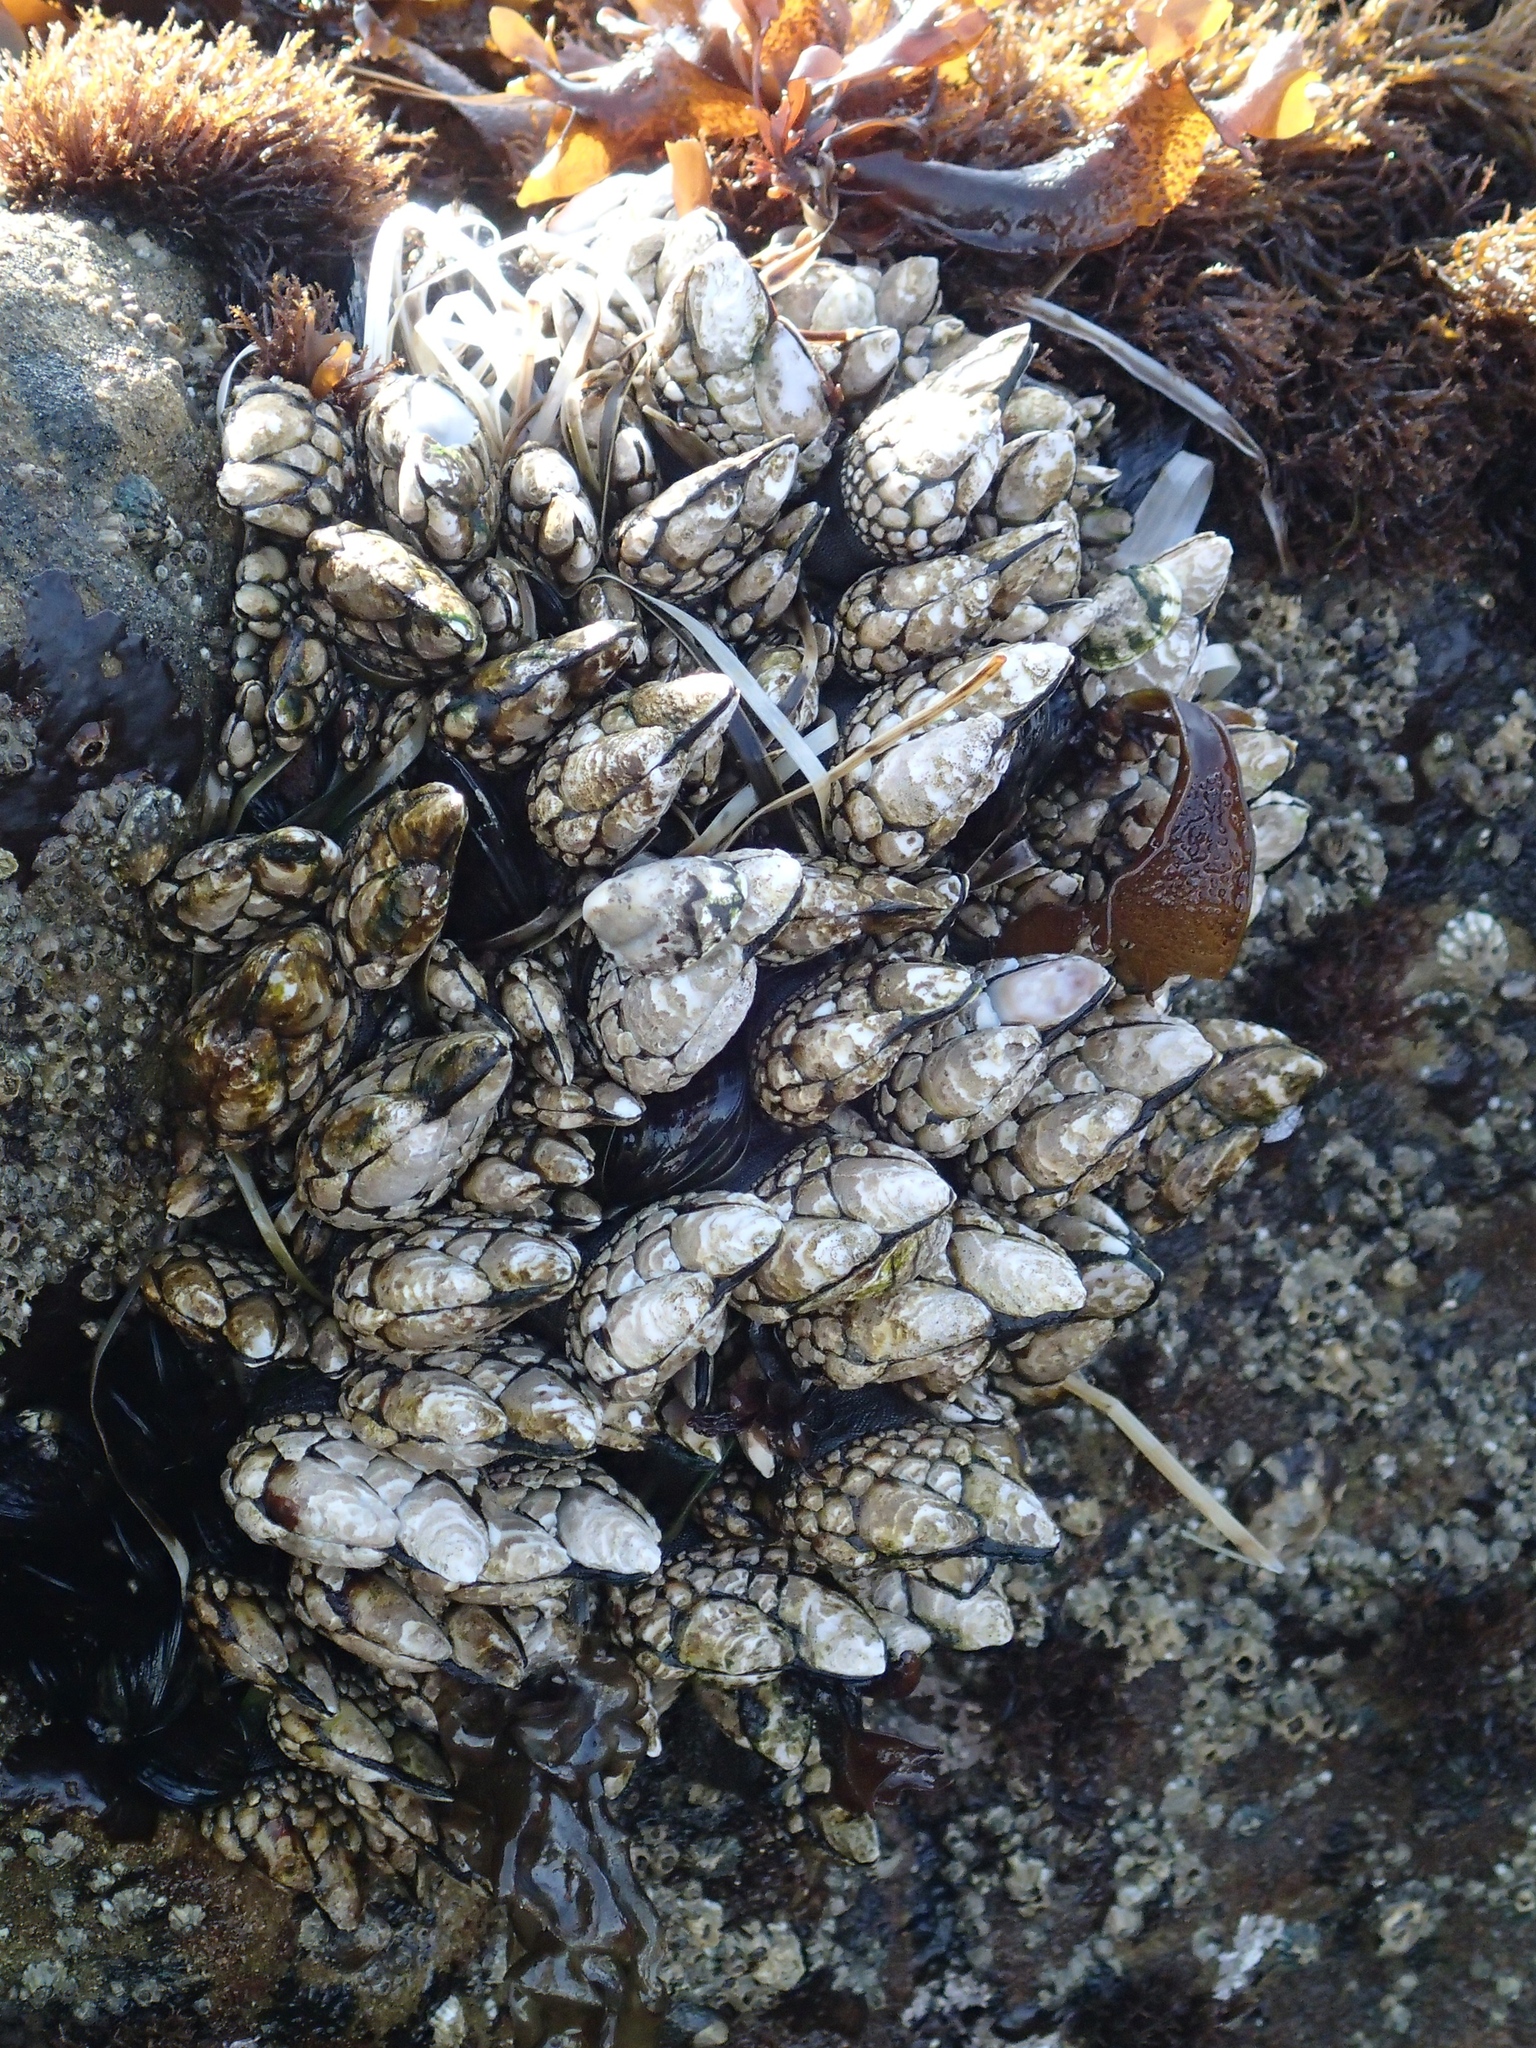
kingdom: Animalia
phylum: Arthropoda
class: Maxillopoda
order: Pedunculata
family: Pollicipedidae
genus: Pollicipes
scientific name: Pollicipes polymerus
